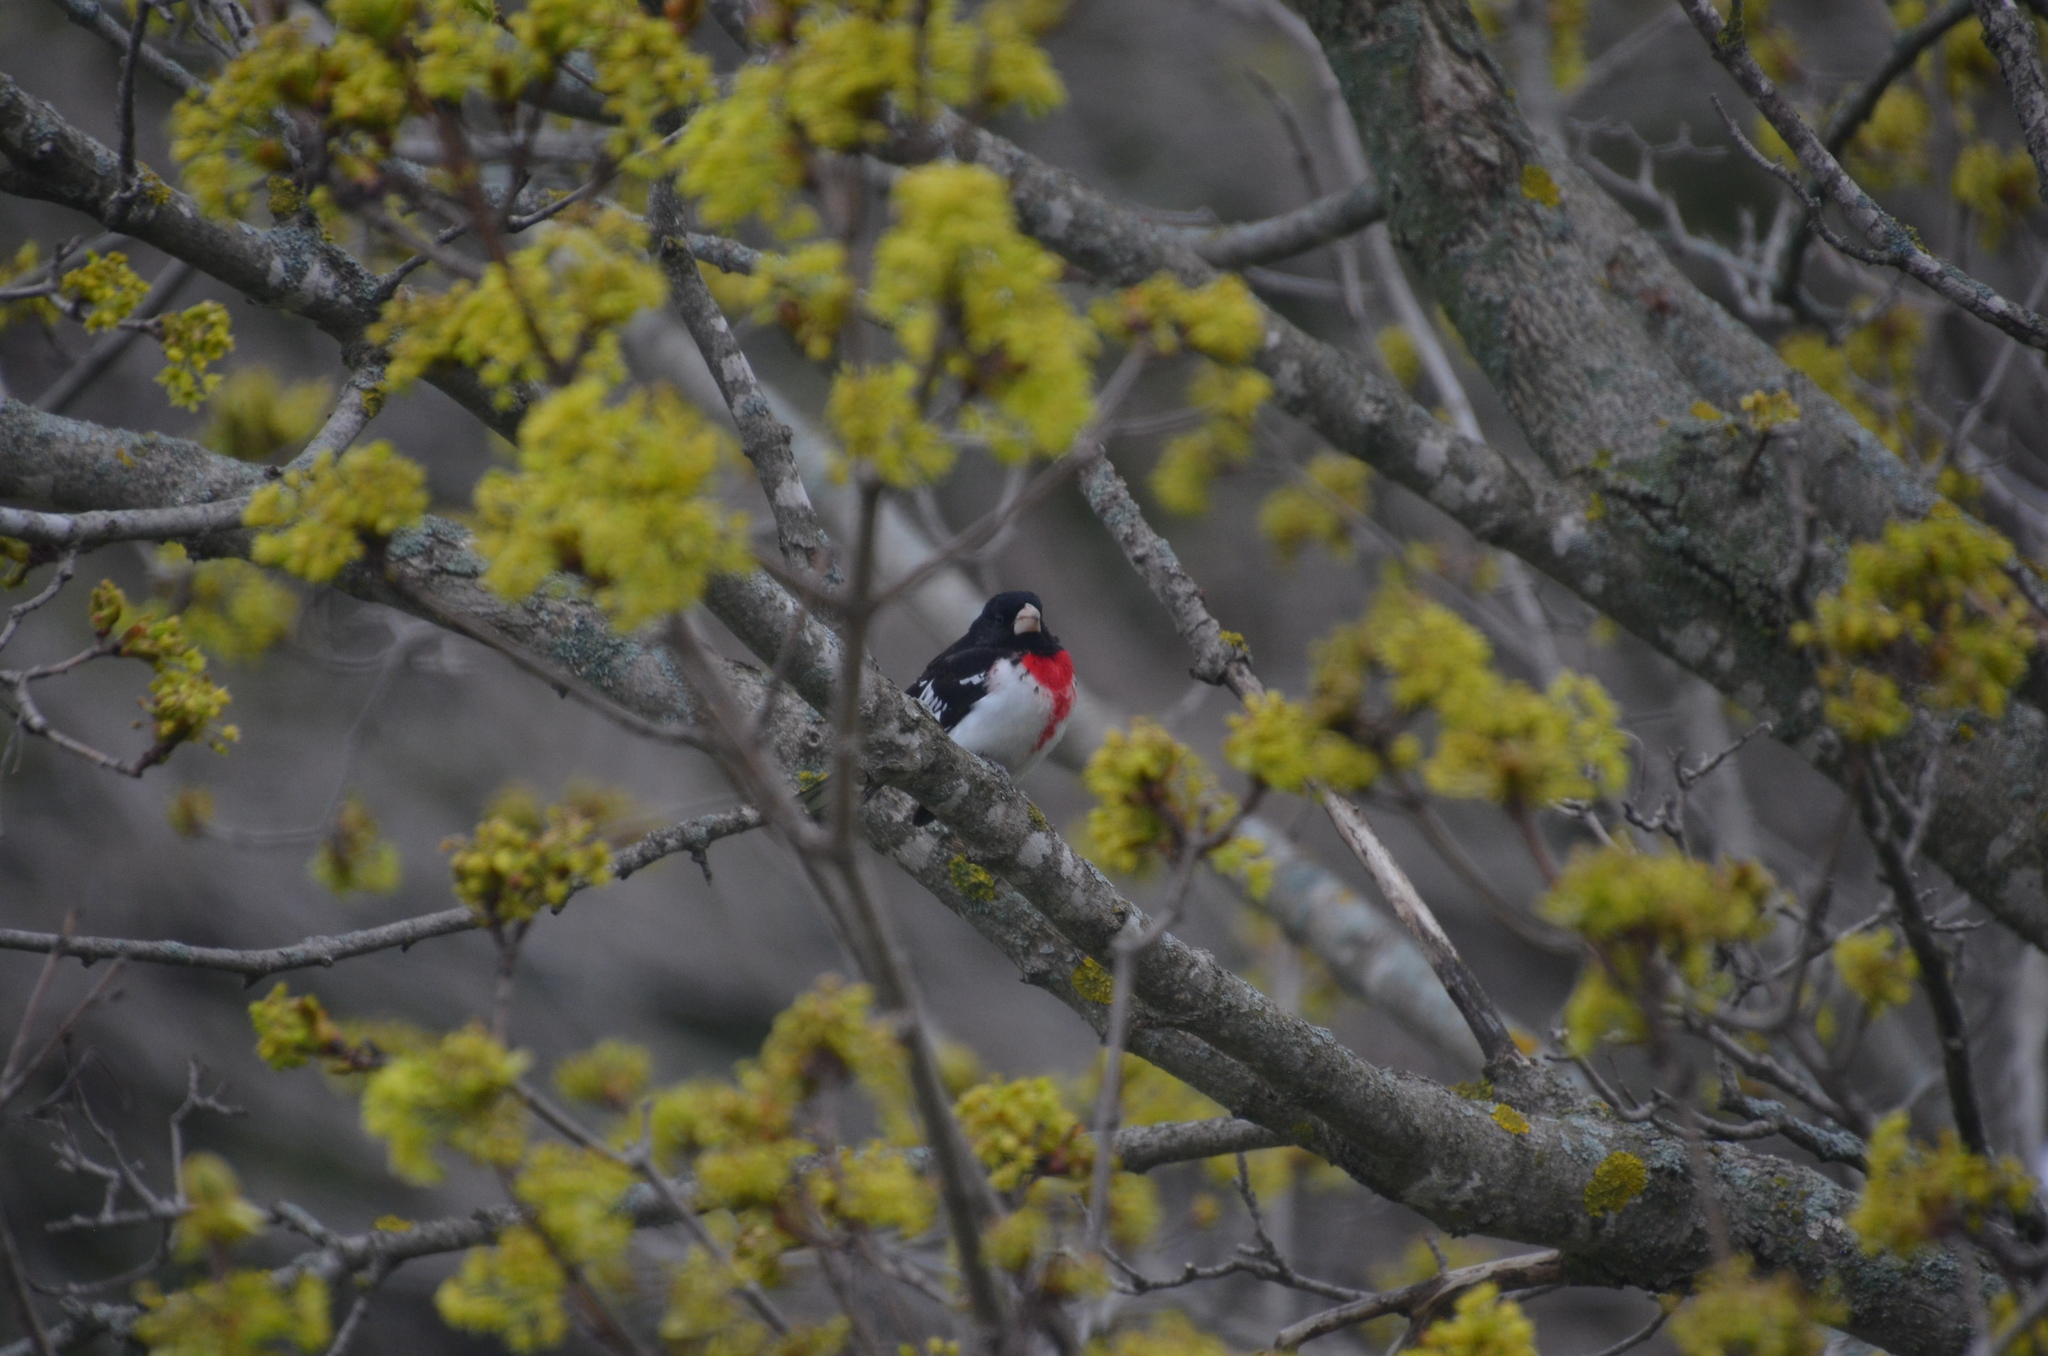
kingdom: Animalia
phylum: Chordata
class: Aves
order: Passeriformes
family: Cardinalidae
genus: Pheucticus
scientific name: Pheucticus ludovicianus
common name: Rose-breasted grosbeak
